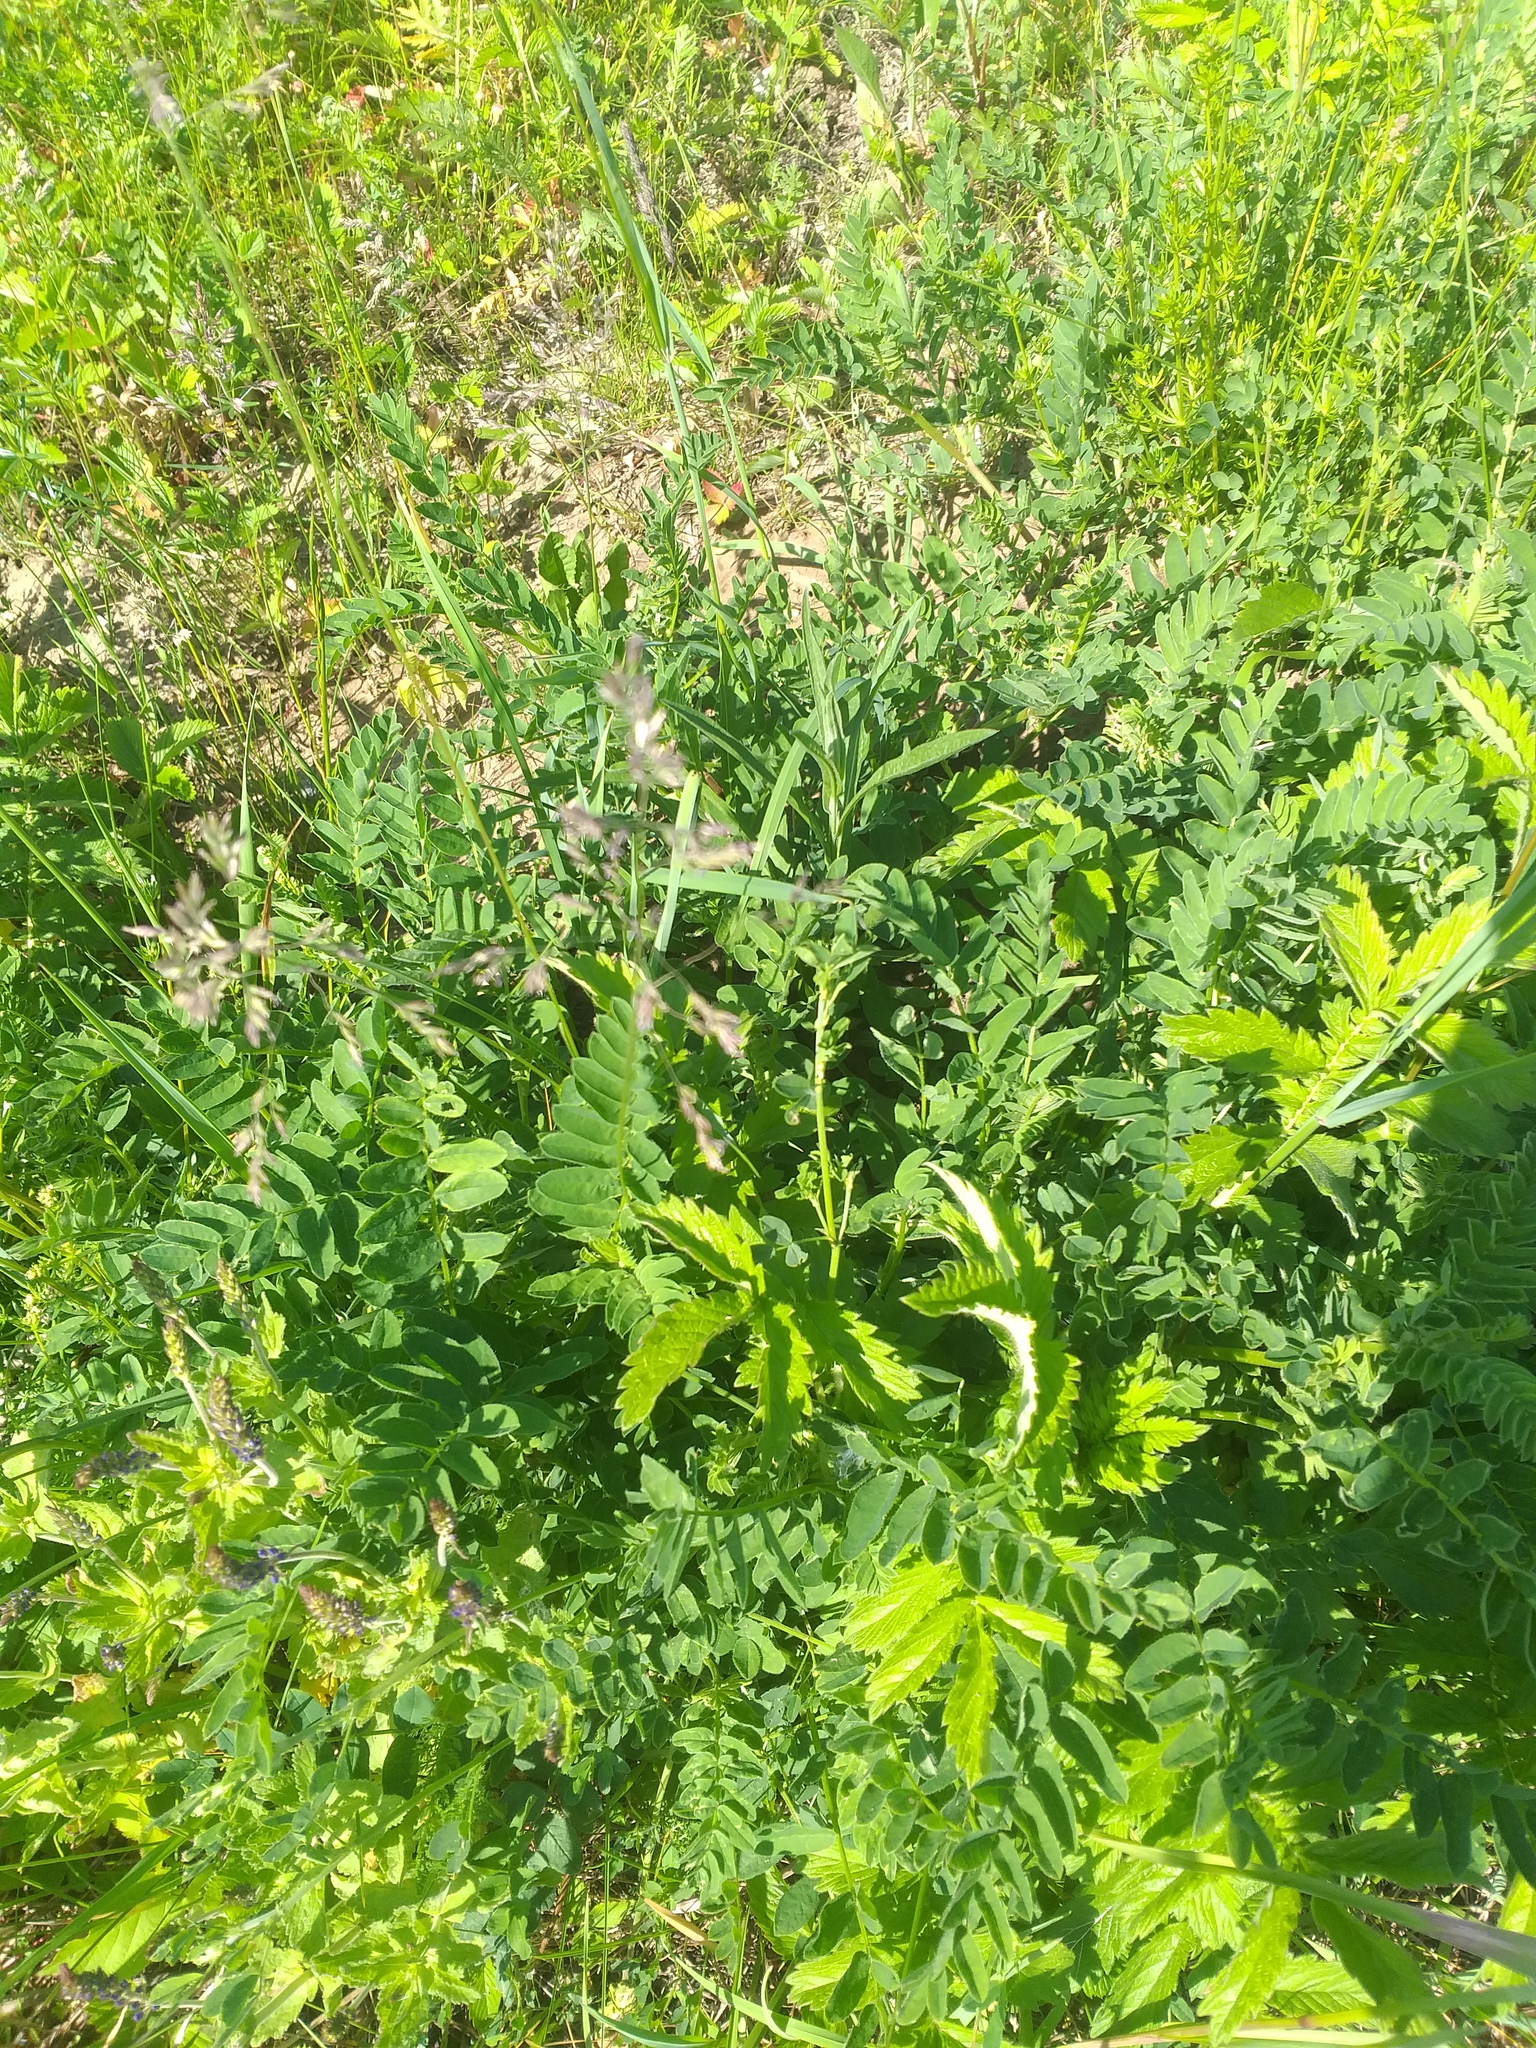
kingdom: Plantae
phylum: Tracheophyta
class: Magnoliopsida
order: Fabales
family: Fabaceae
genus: Astragalus
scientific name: Astragalus cicer
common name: Chick-pea milk-vetch
